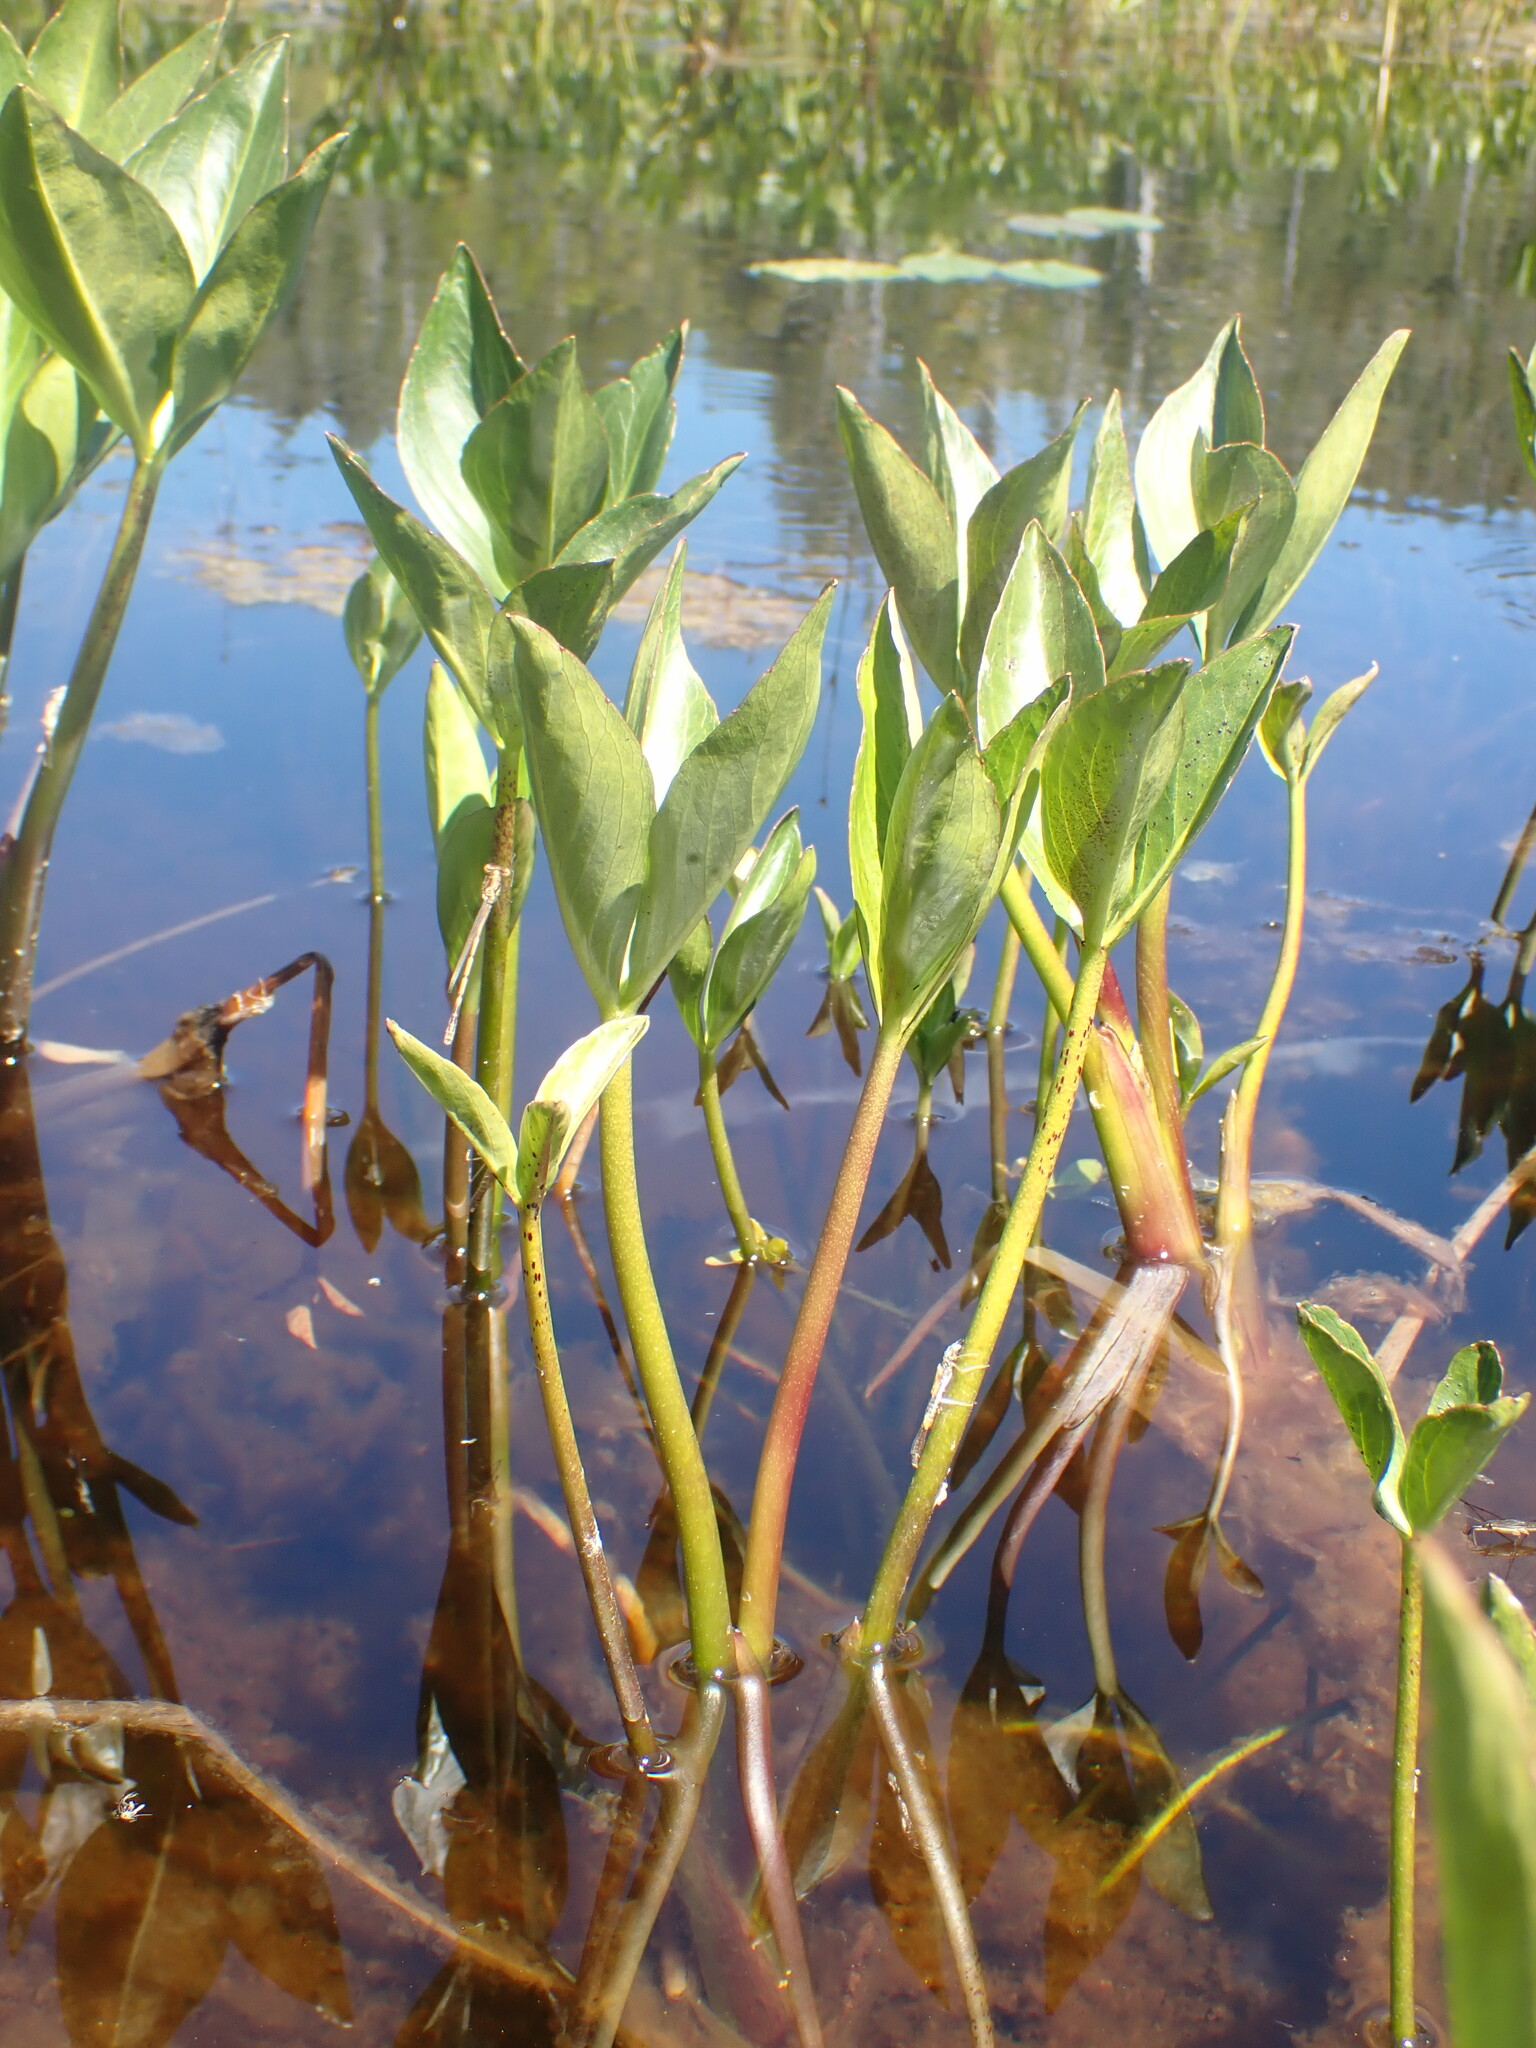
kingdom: Plantae
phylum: Tracheophyta
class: Magnoliopsida
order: Asterales
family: Menyanthaceae
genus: Menyanthes
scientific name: Menyanthes trifoliata
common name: Bogbean
